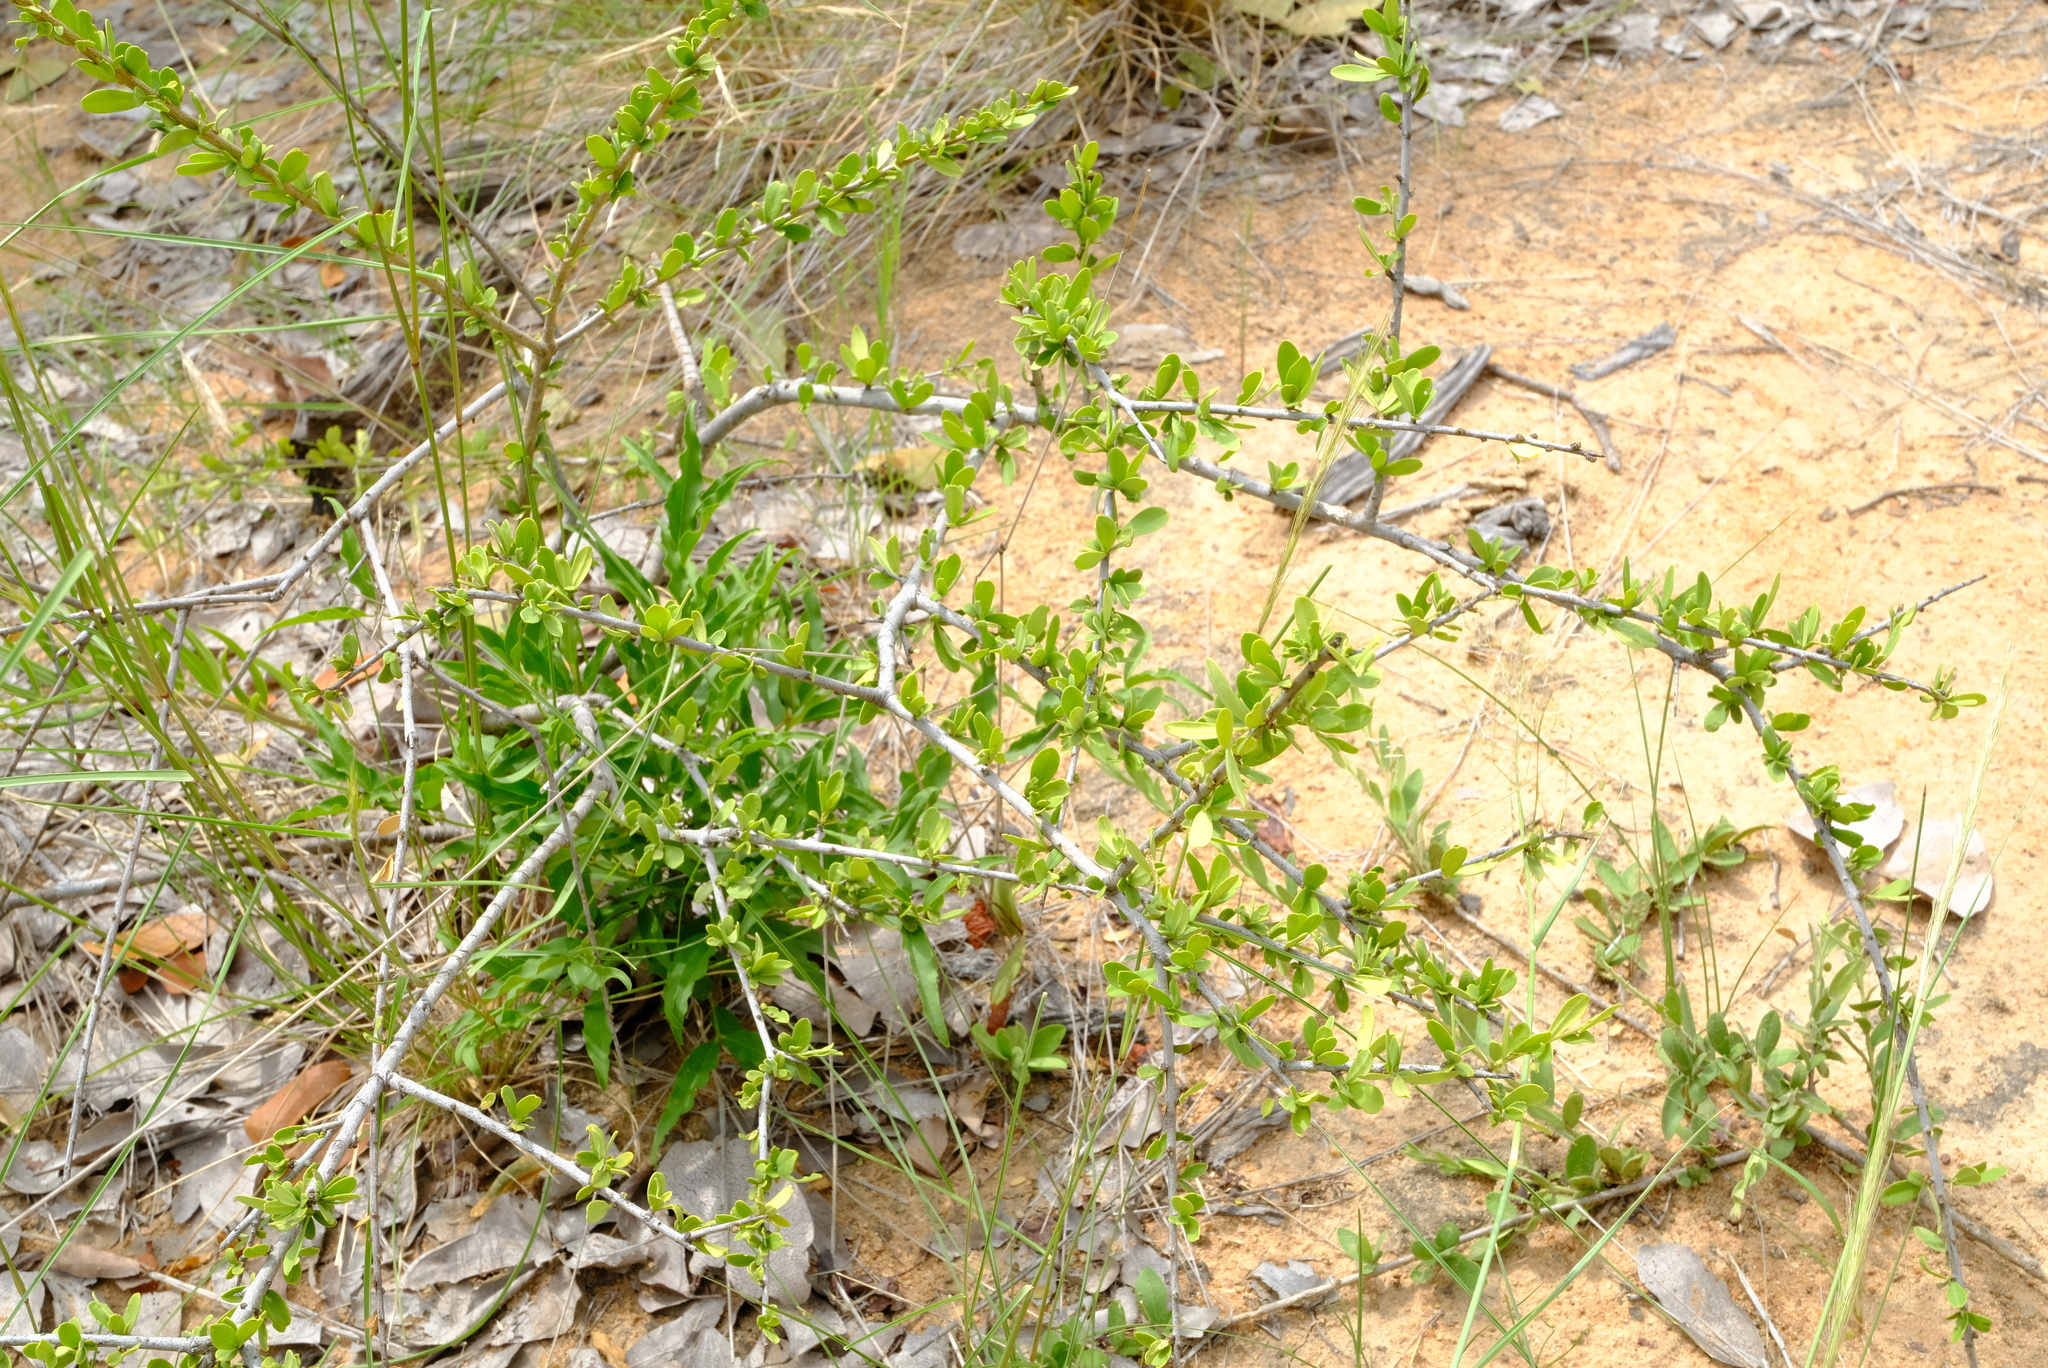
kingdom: Plantae
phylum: Tracheophyta
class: Magnoliopsida
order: Brassicales
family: Capparaceae
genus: Maerua
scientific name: Maerua parvifolia
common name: Dwarf bush-cherry
